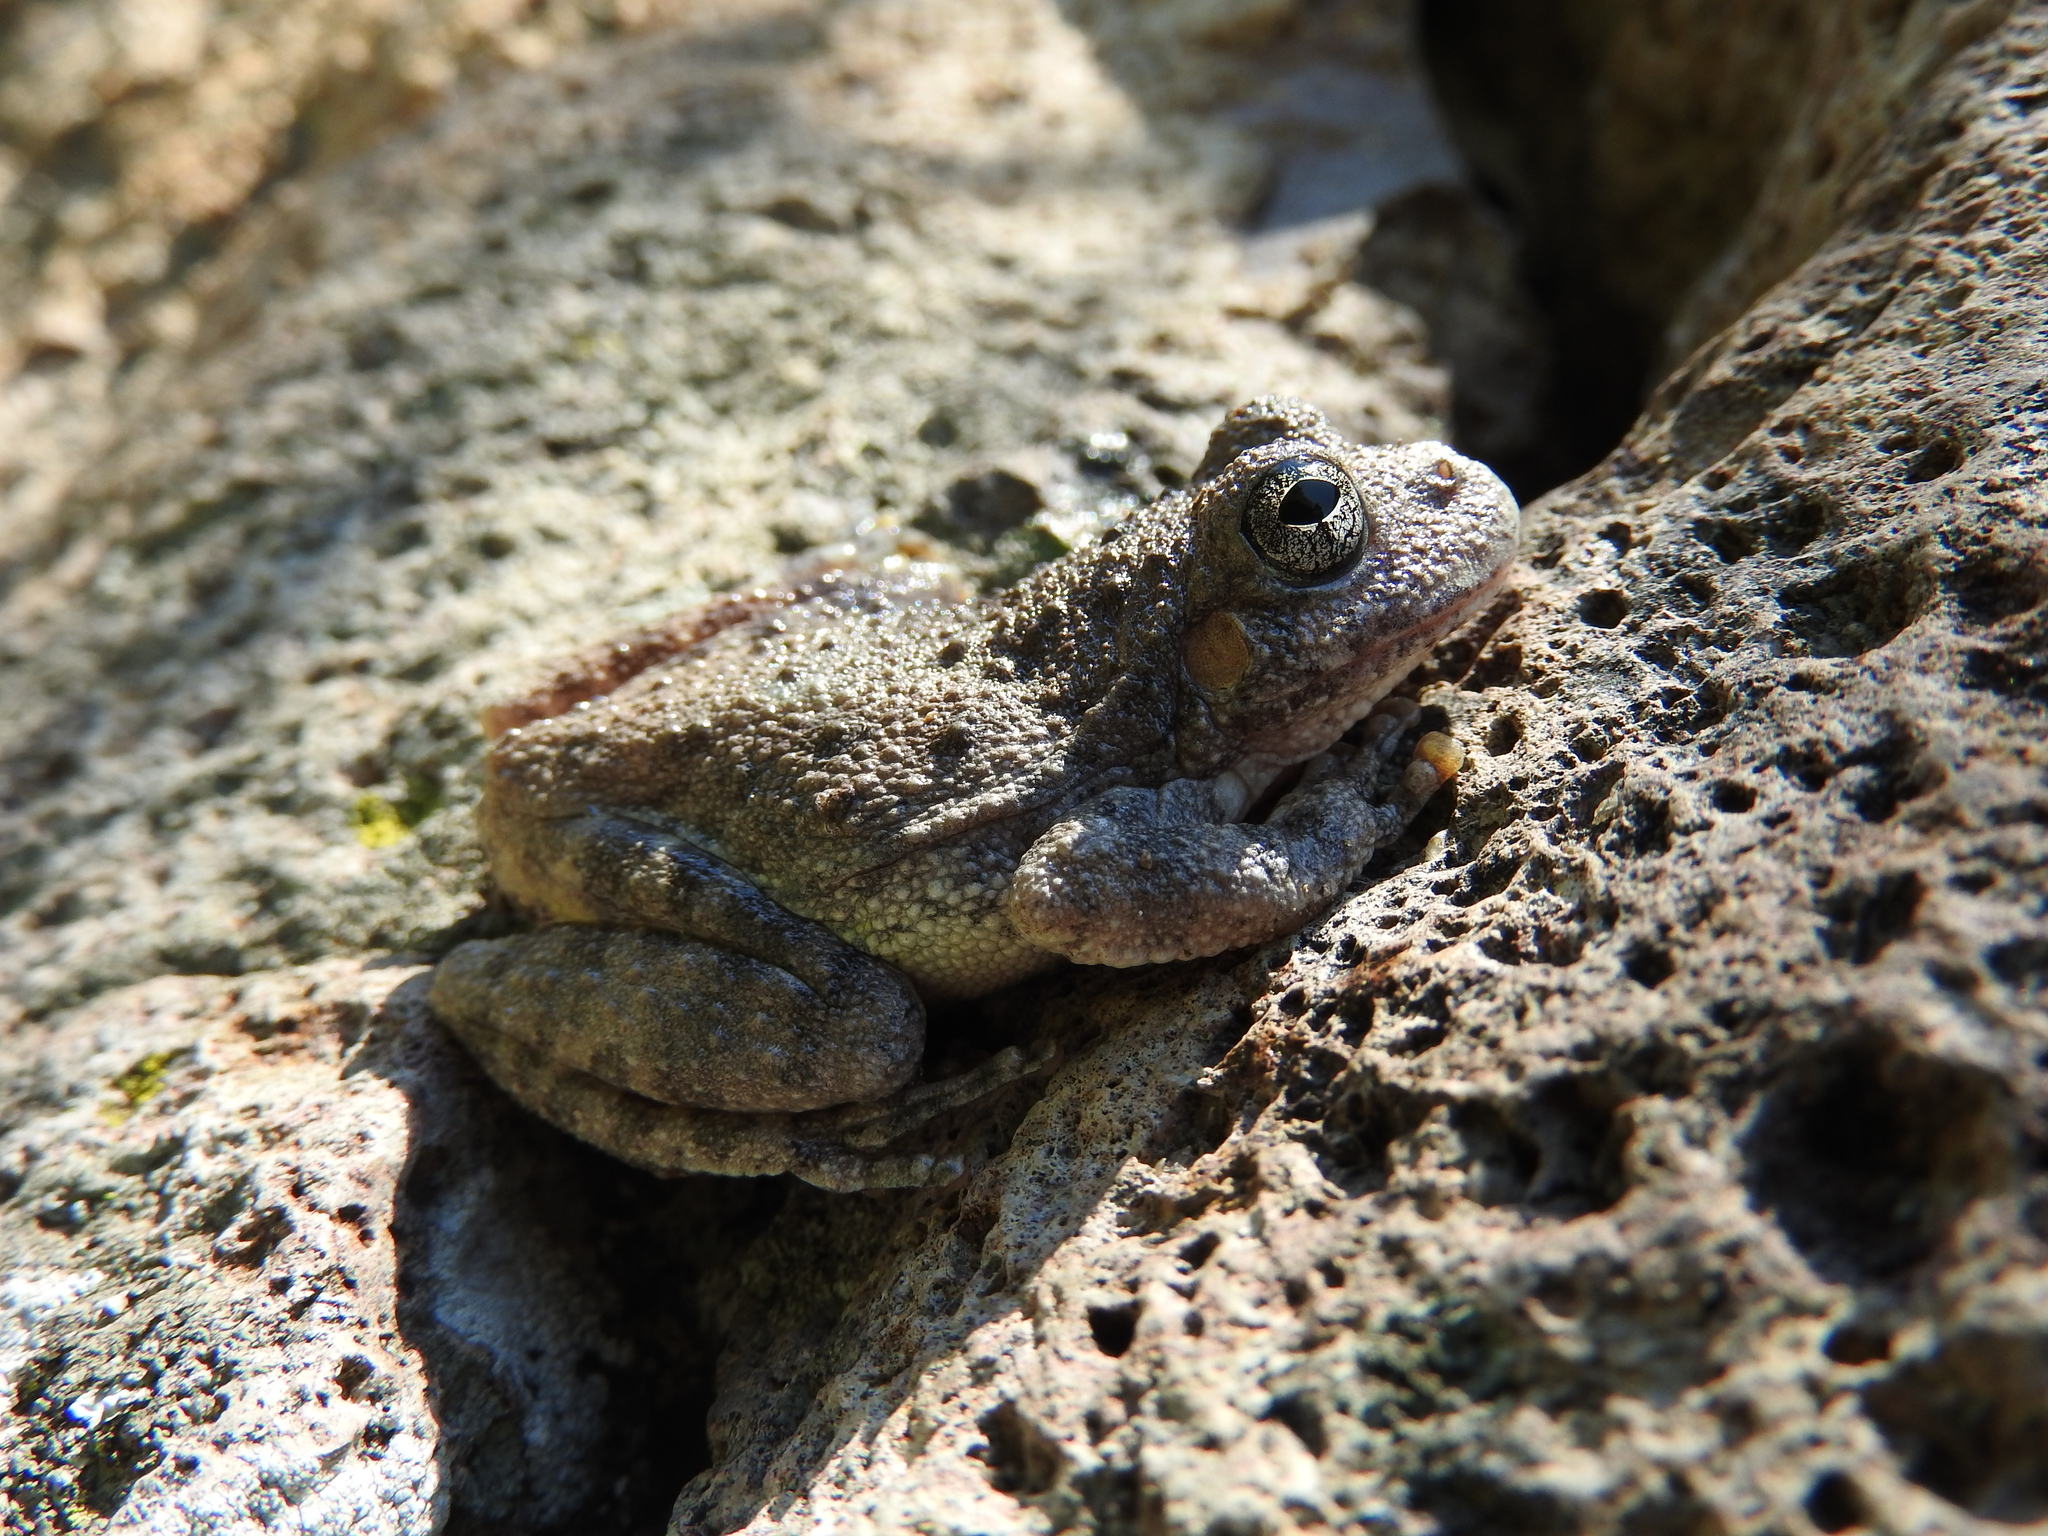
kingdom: Animalia
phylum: Chordata
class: Amphibia
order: Anura
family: Hylidae
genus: Dryophytes
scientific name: Dryophytes arenicolor
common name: Canyon treefrog
